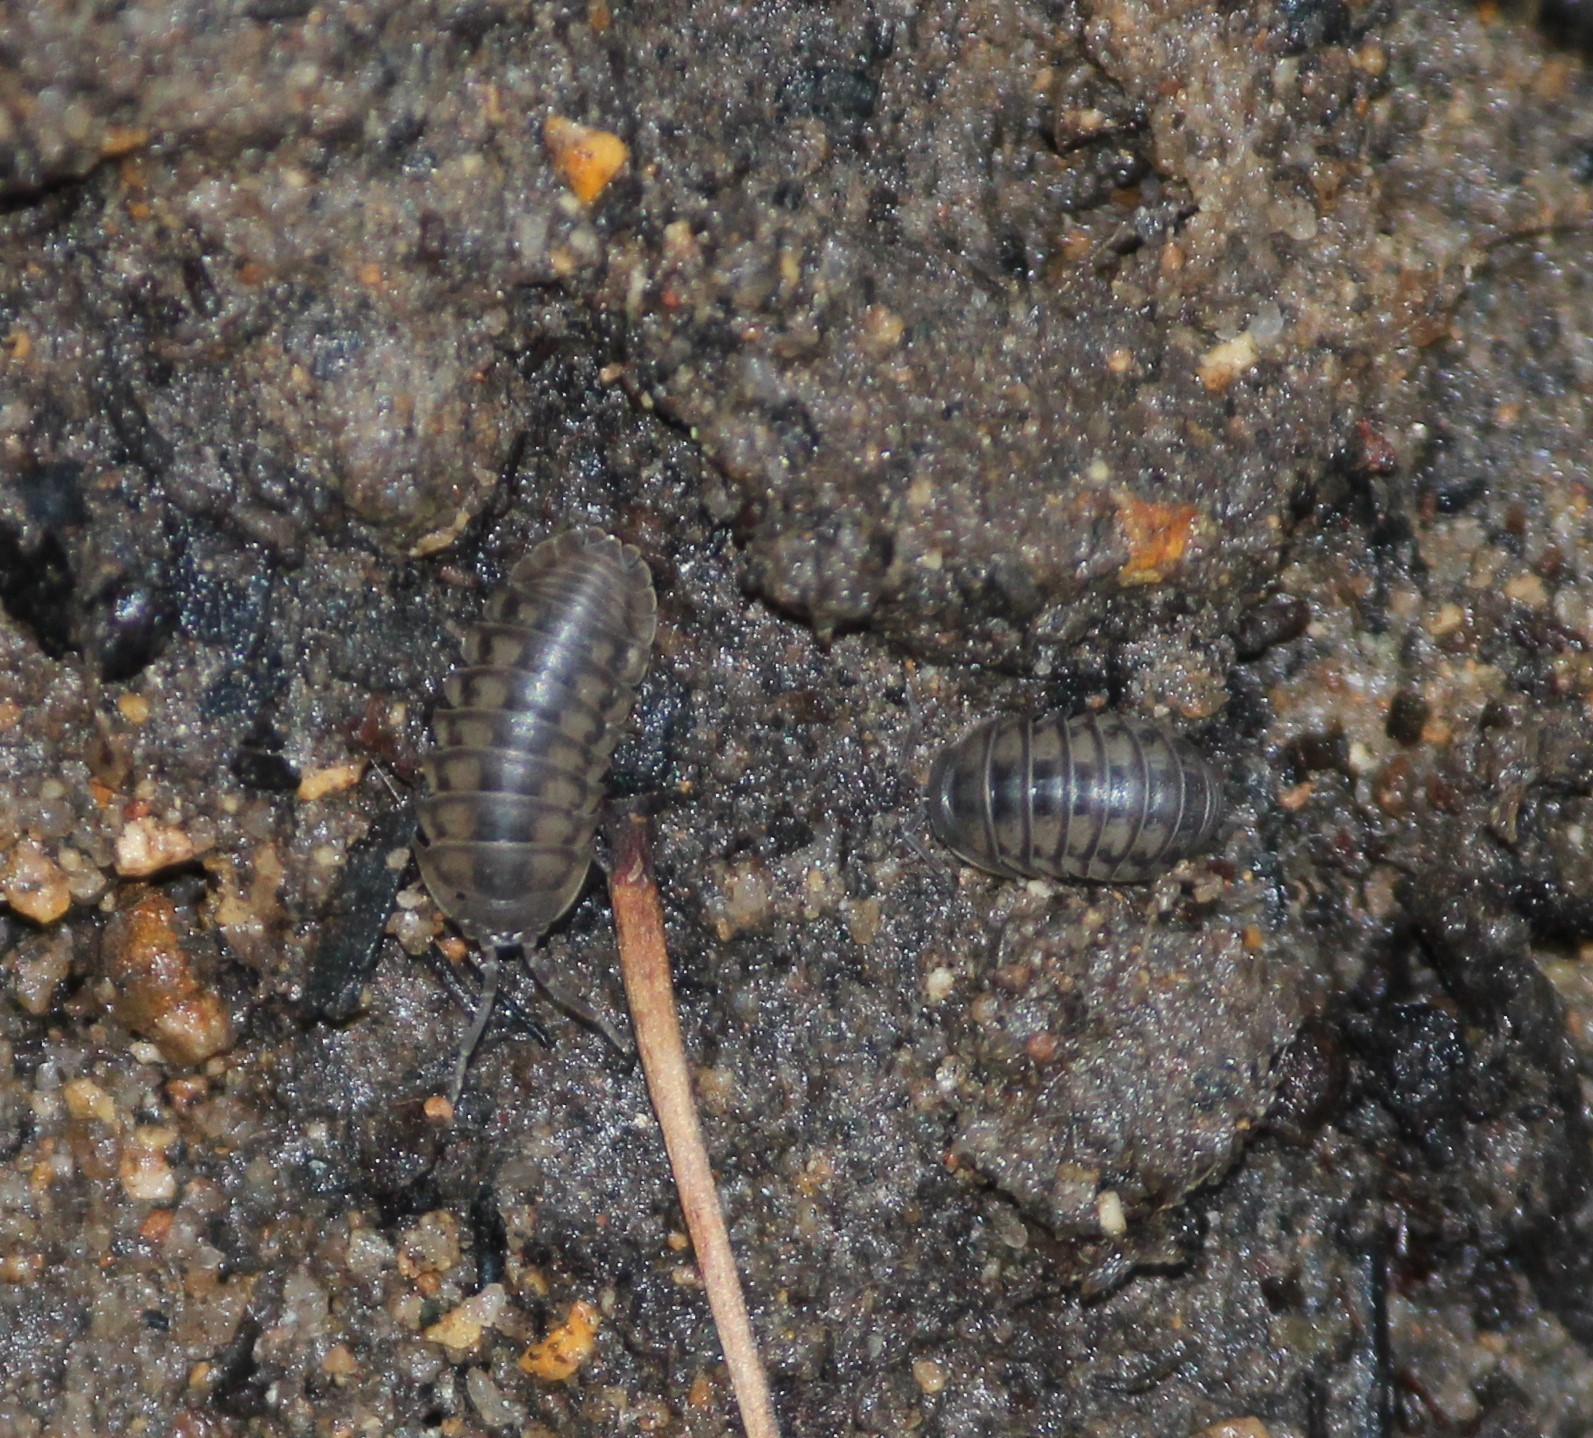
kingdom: Animalia
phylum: Arthropoda
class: Malacostraca
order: Isopoda
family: Armadillidiidae
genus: Armadillidium
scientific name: Armadillidium nasatum
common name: Isopod
